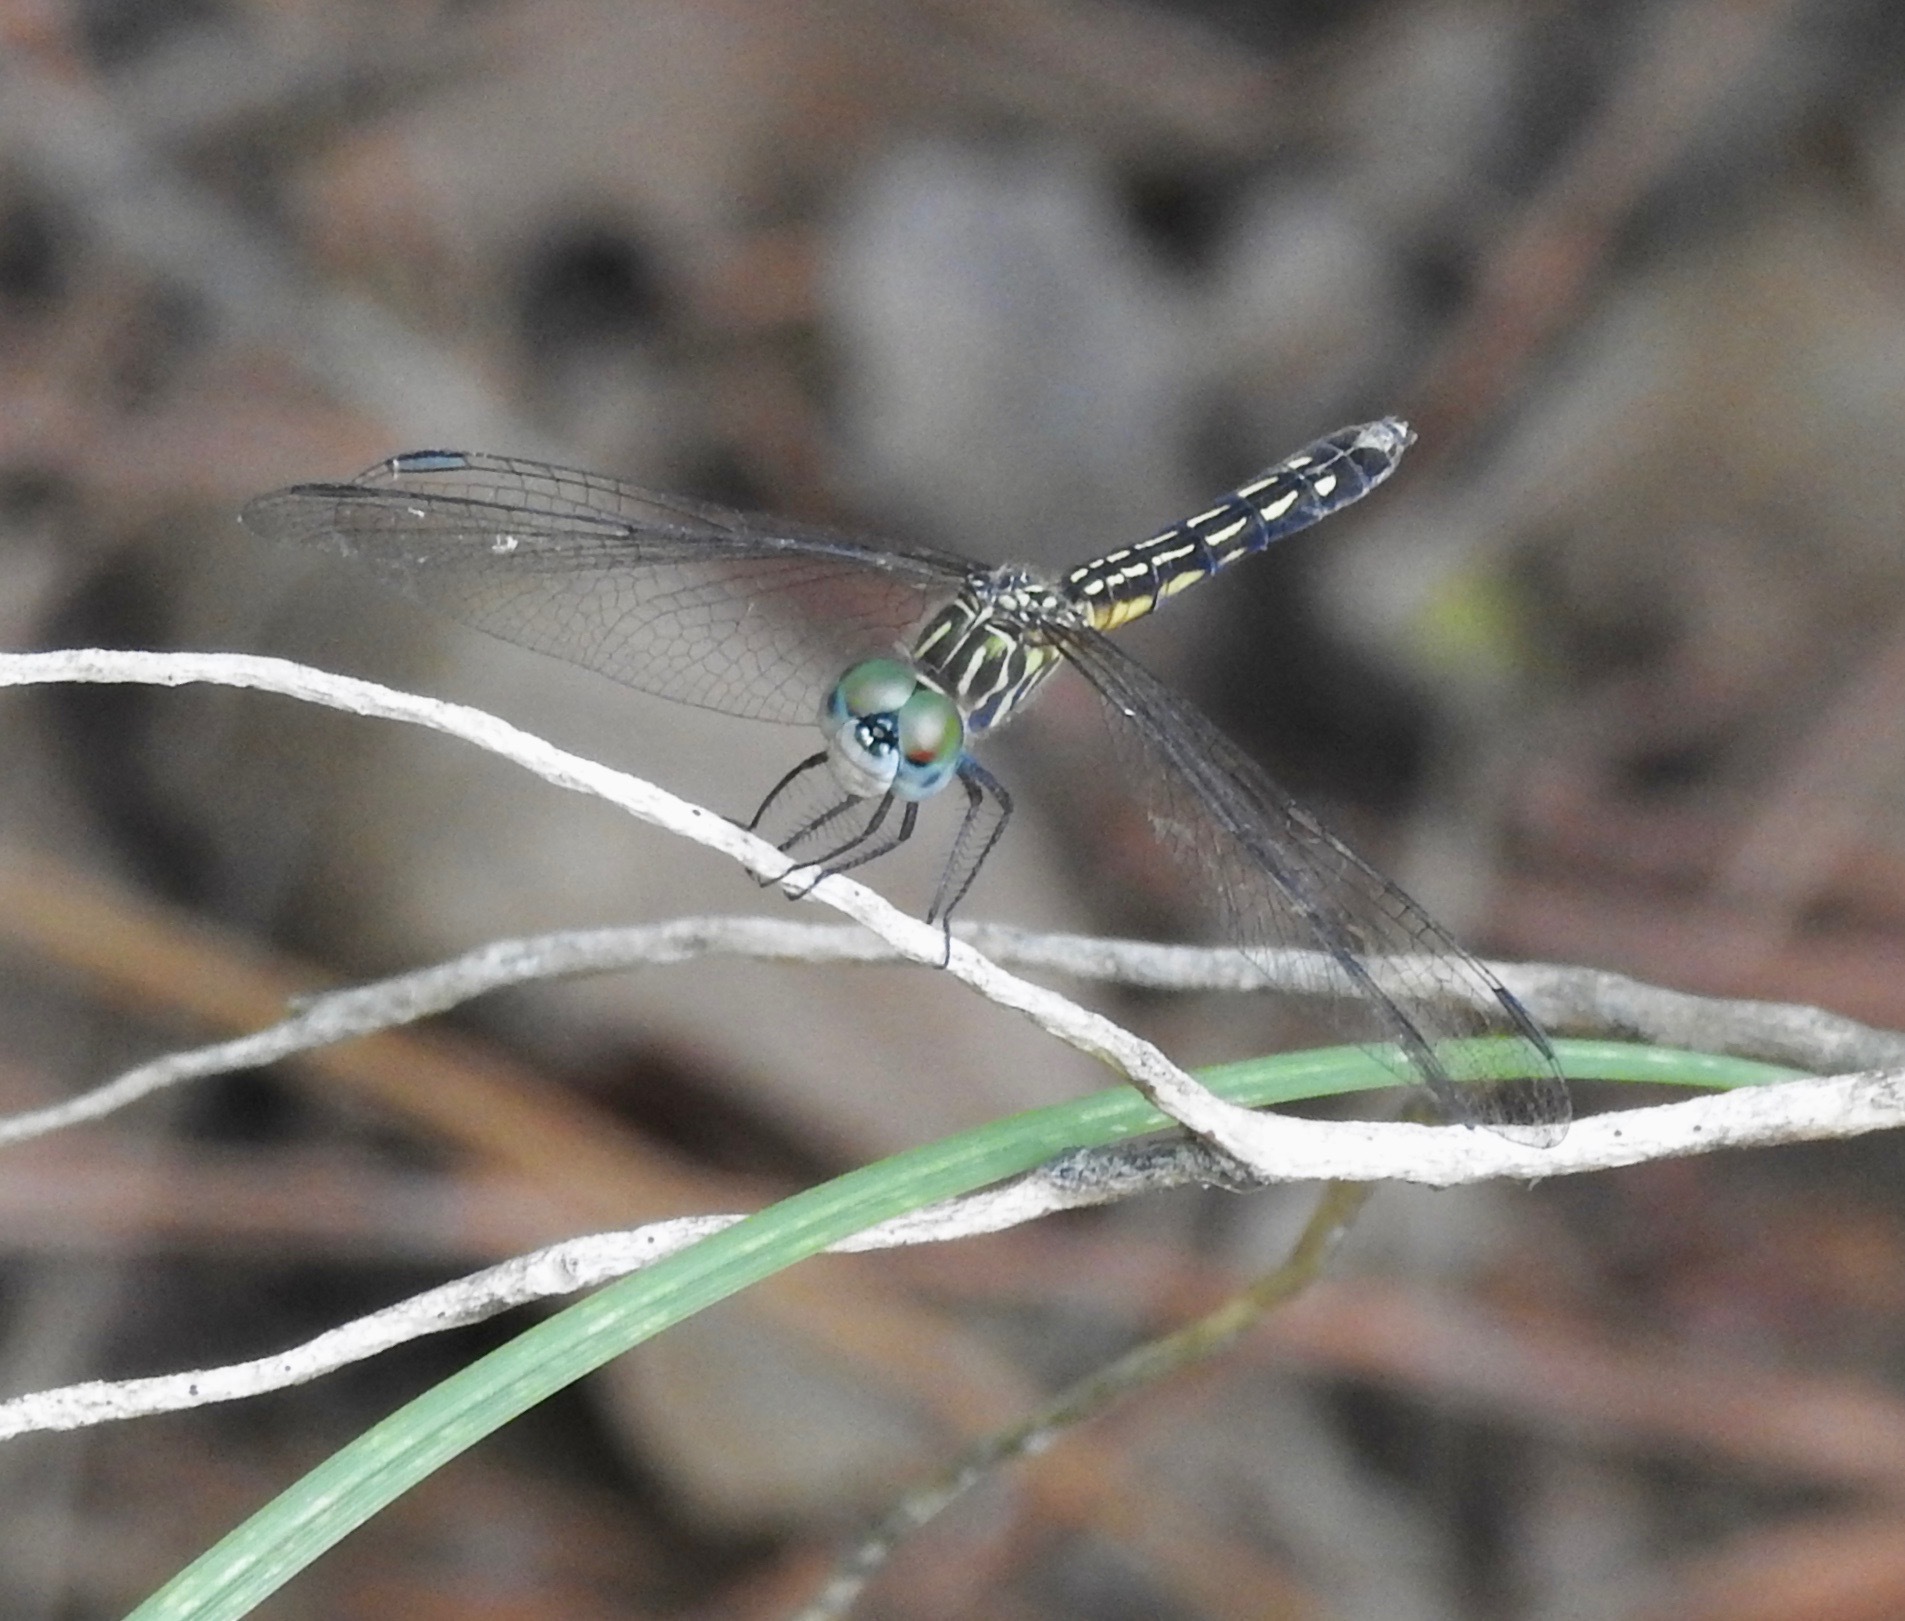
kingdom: Animalia
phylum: Arthropoda
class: Insecta
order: Odonata
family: Libellulidae
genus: Pachydiplax
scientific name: Pachydiplax longipennis
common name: Blue dasher
